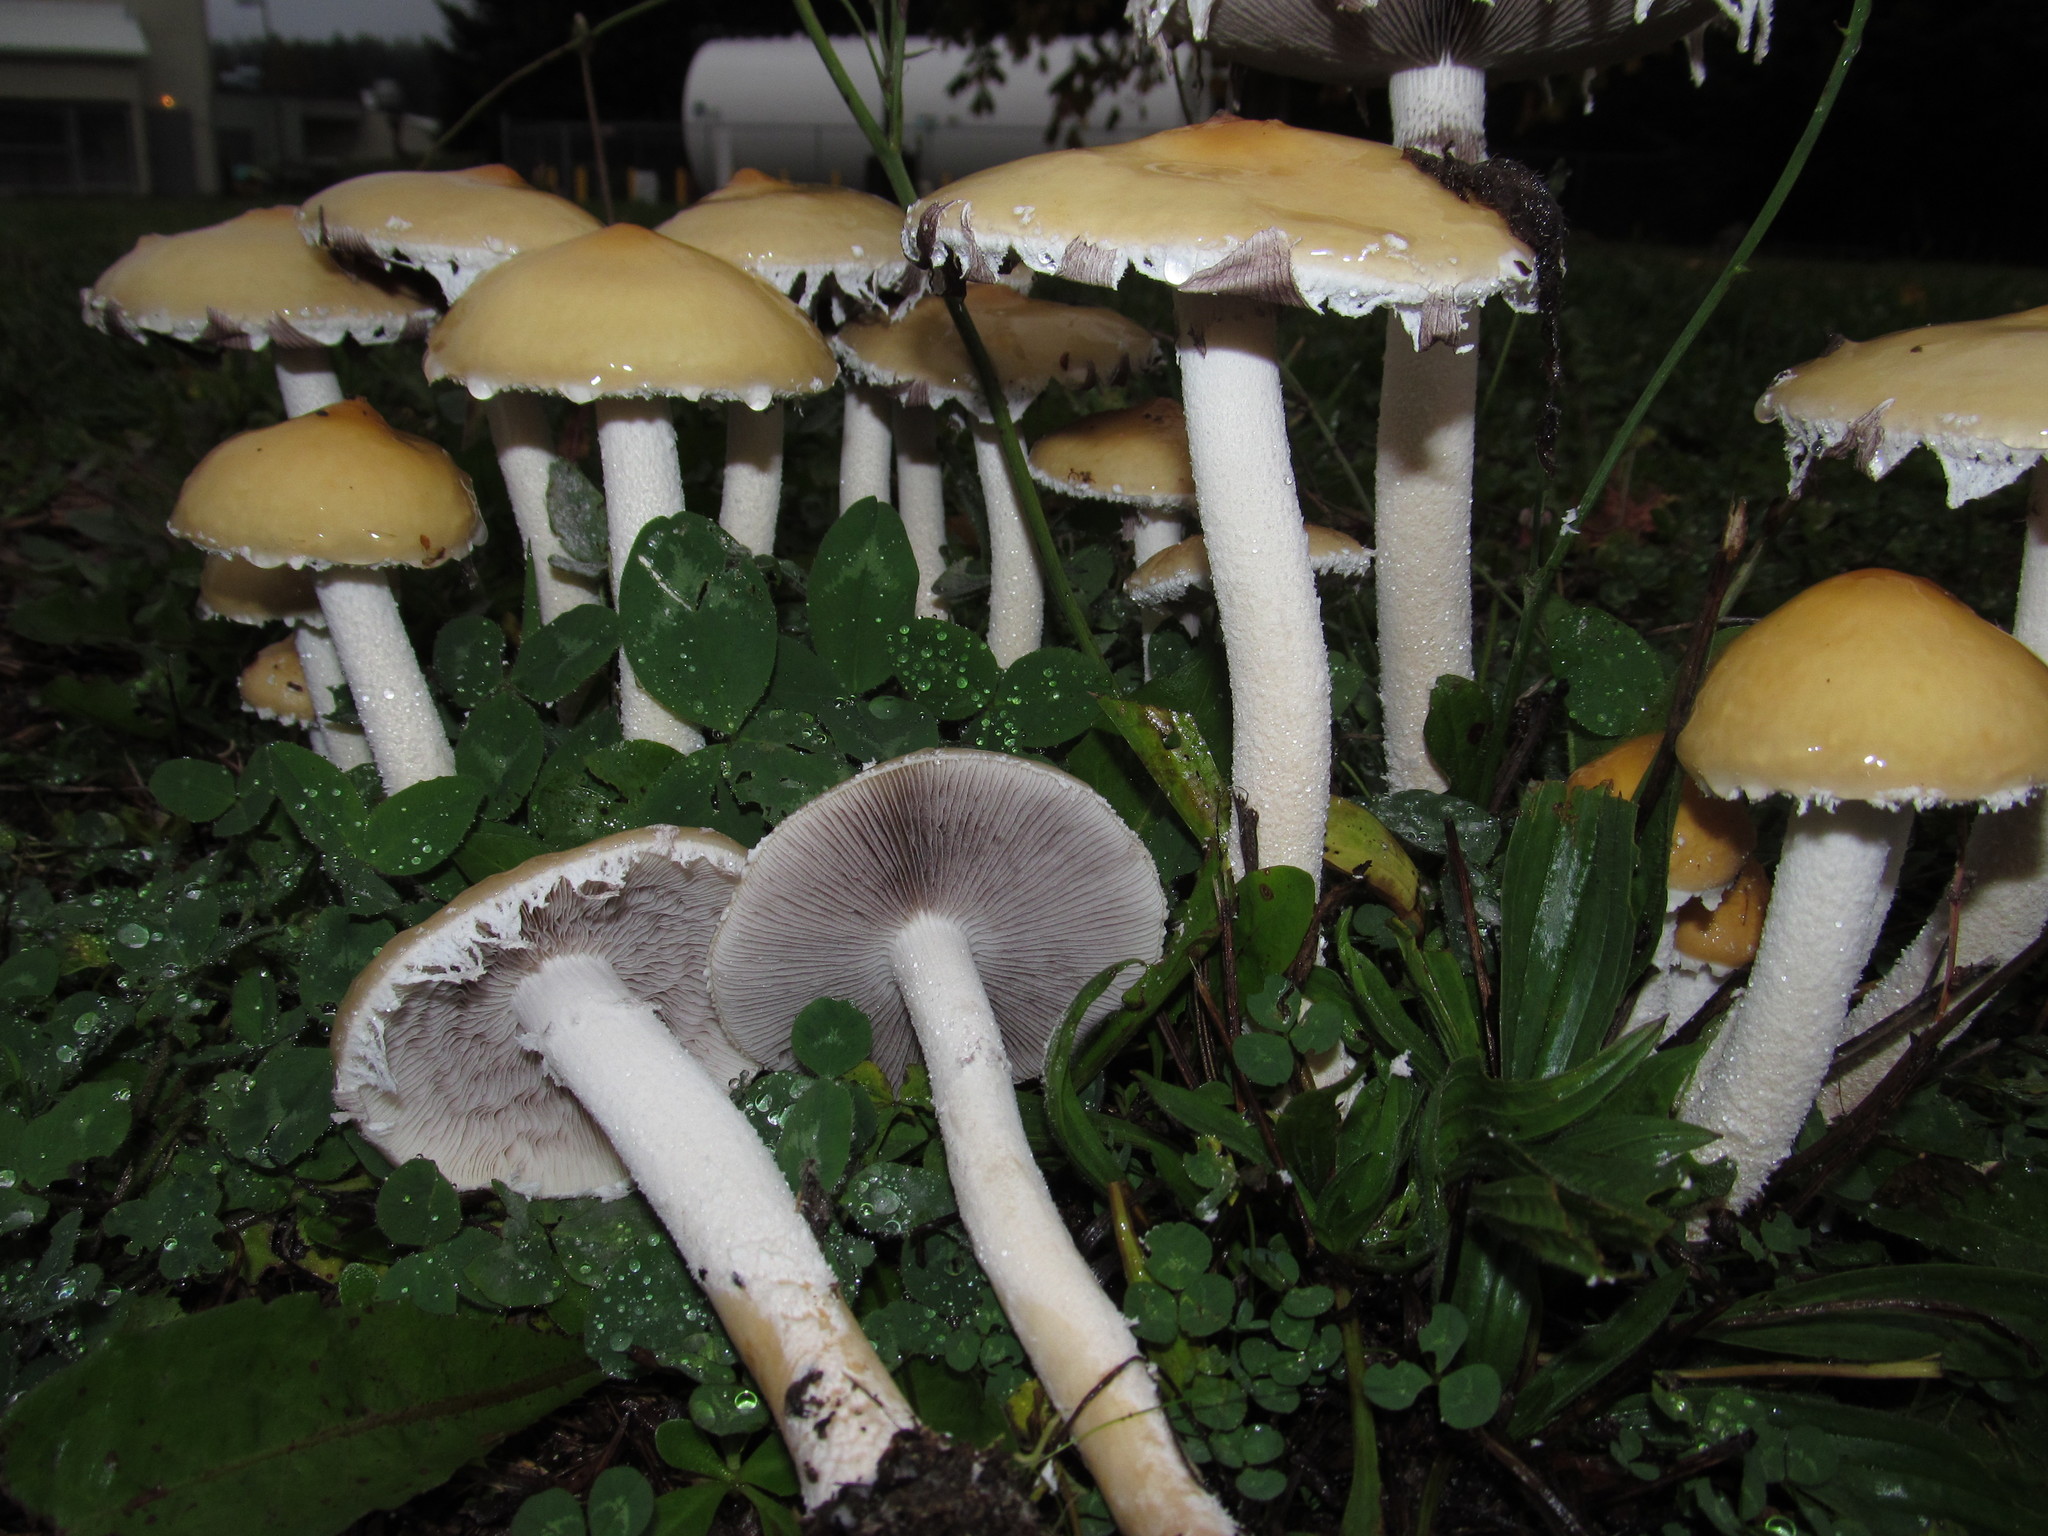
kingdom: Fungi
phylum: Basidiomycota
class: Agaricomycetes
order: Agaricales
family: Strophariaceae
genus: Stropharia
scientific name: Stropharia ambigua
